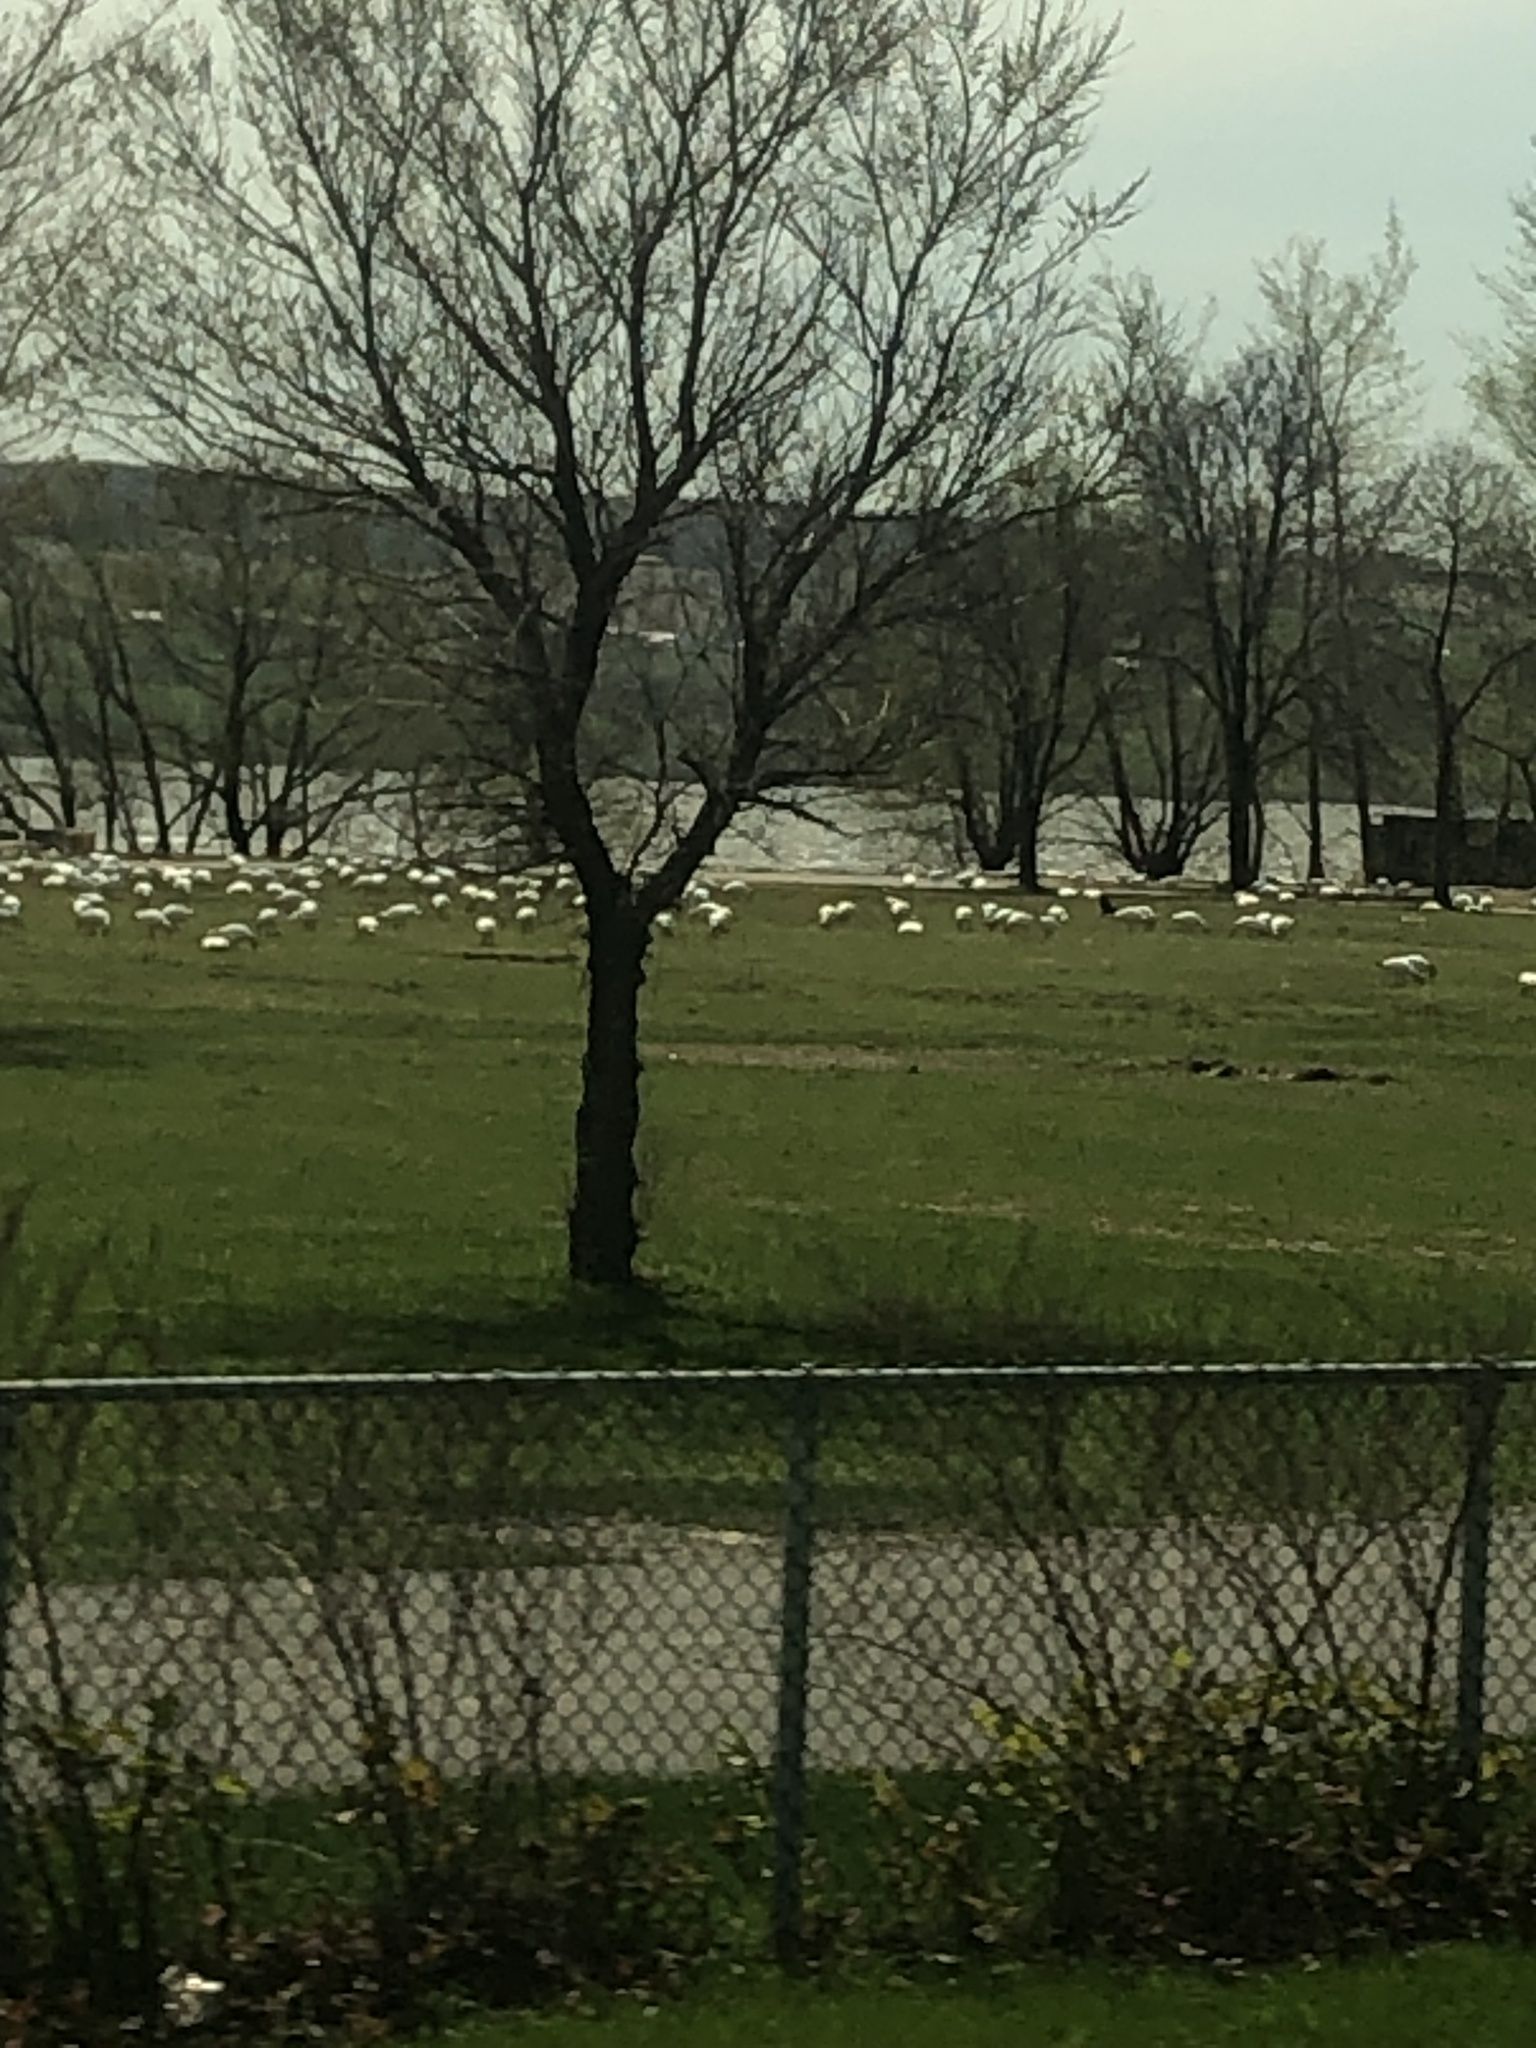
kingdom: Animalia
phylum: Chordata
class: Aves
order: Anseriformes
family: Anatidae
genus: Anser
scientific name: Anser caerulescens
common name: Snow goose
